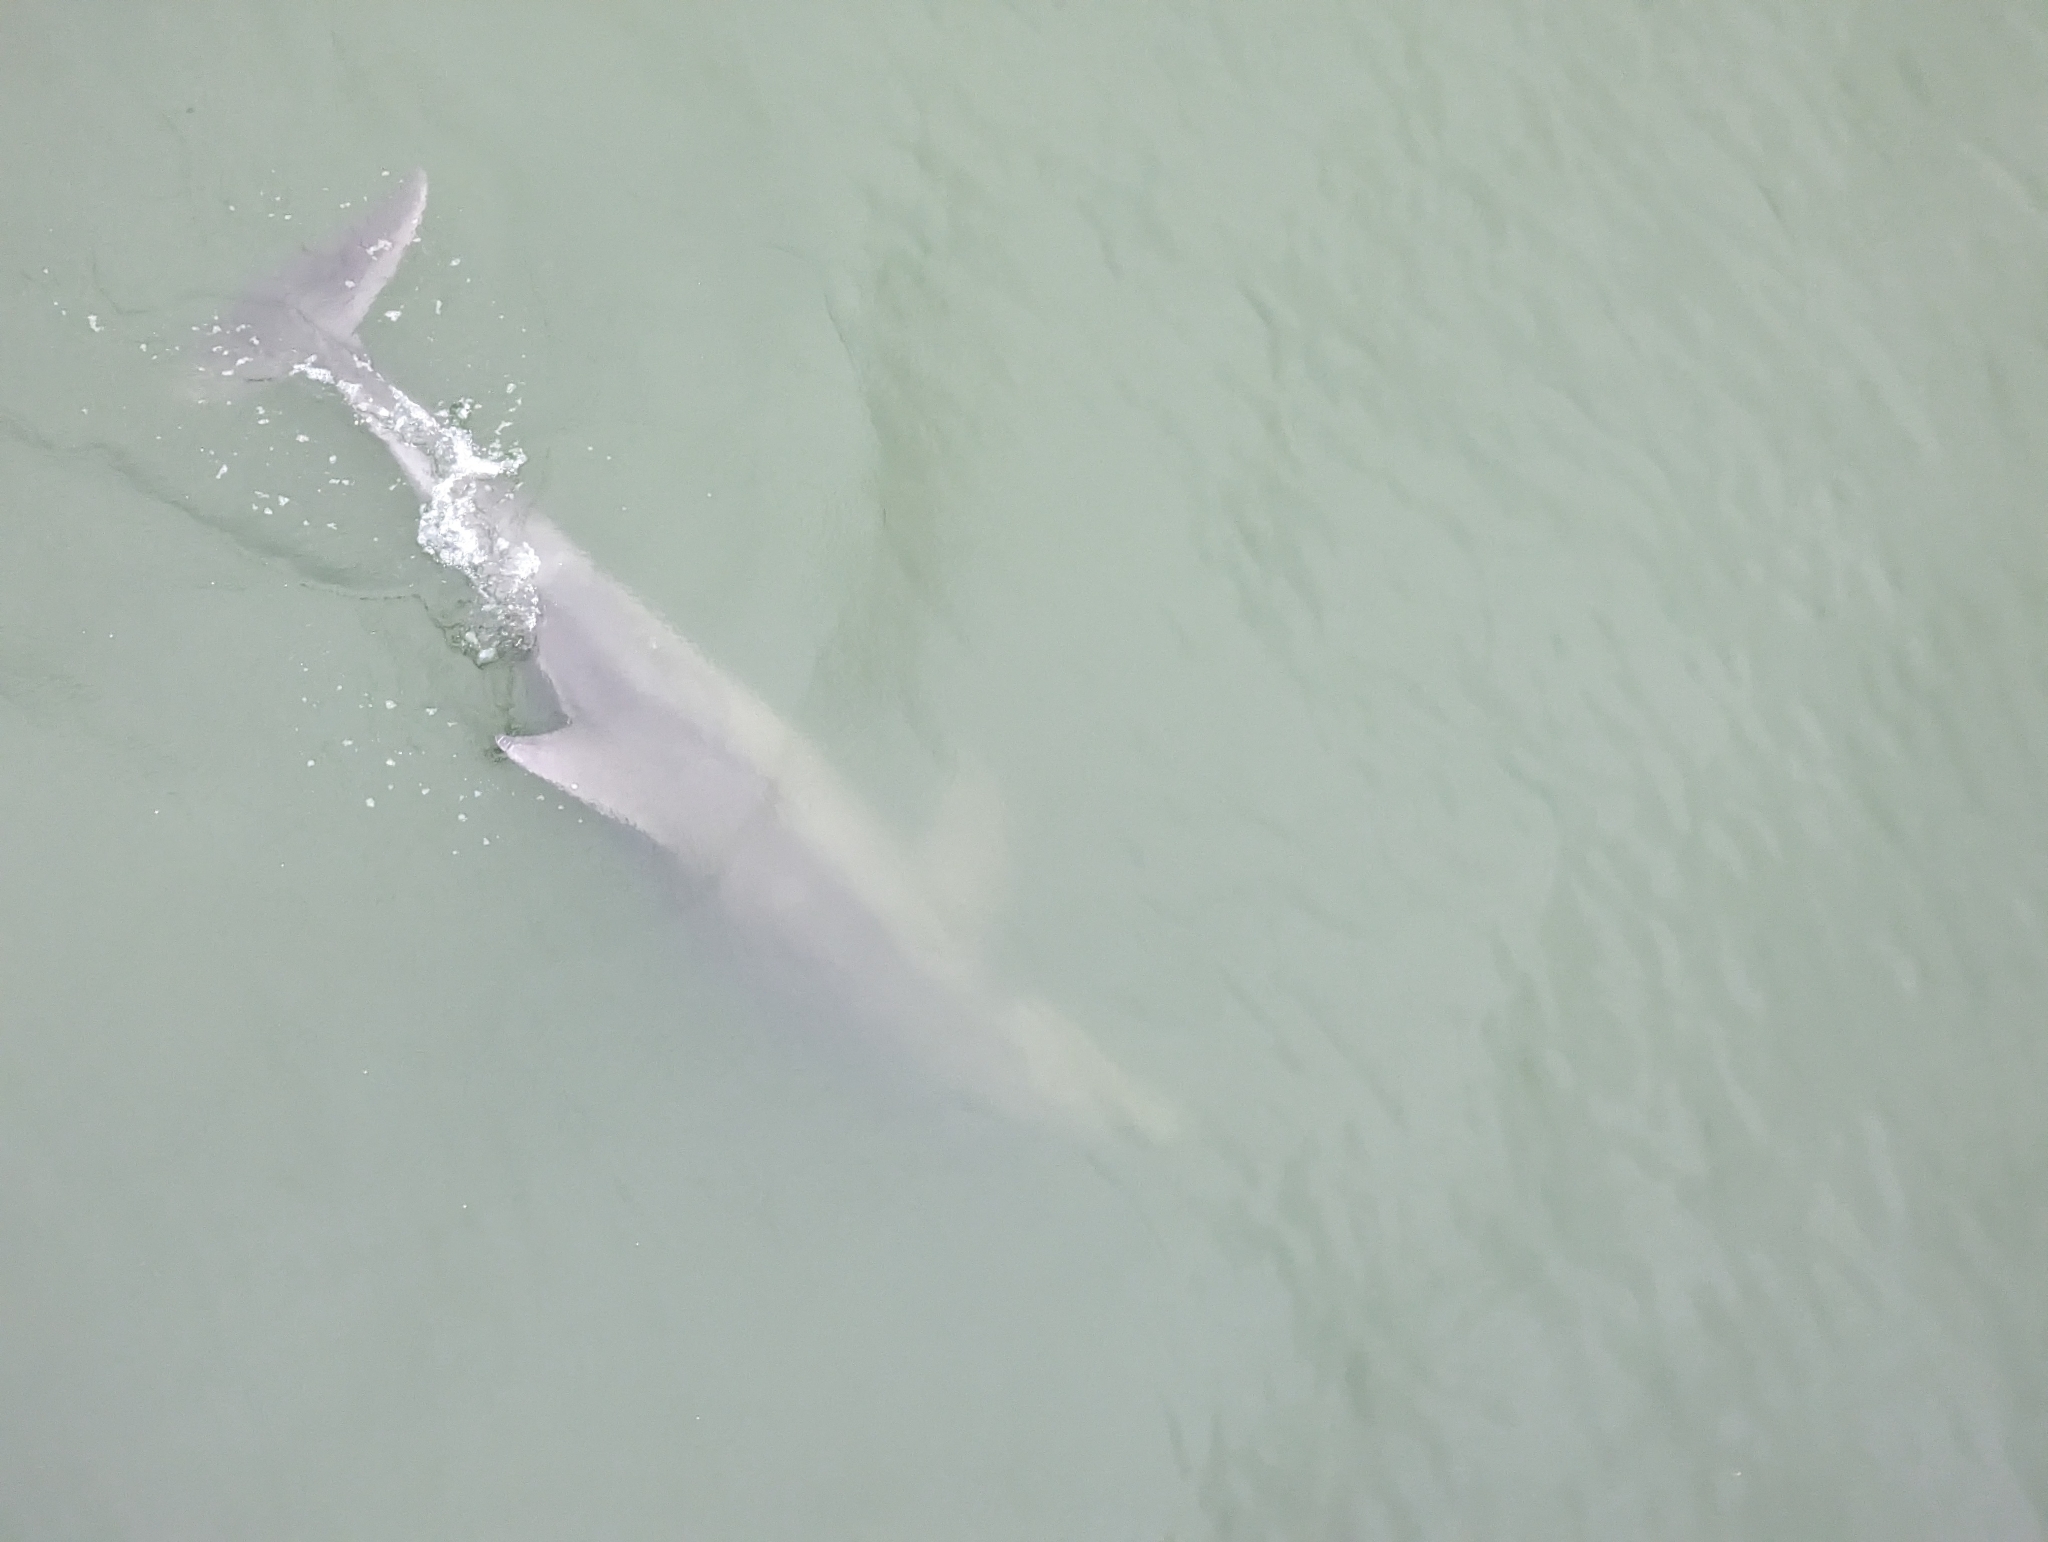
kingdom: Animalia
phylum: Chordata
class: Mammalia
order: Cetacea
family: Delphinidae
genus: Tursiops
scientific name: Tursiops truncatus
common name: Bottlenose dolphin
